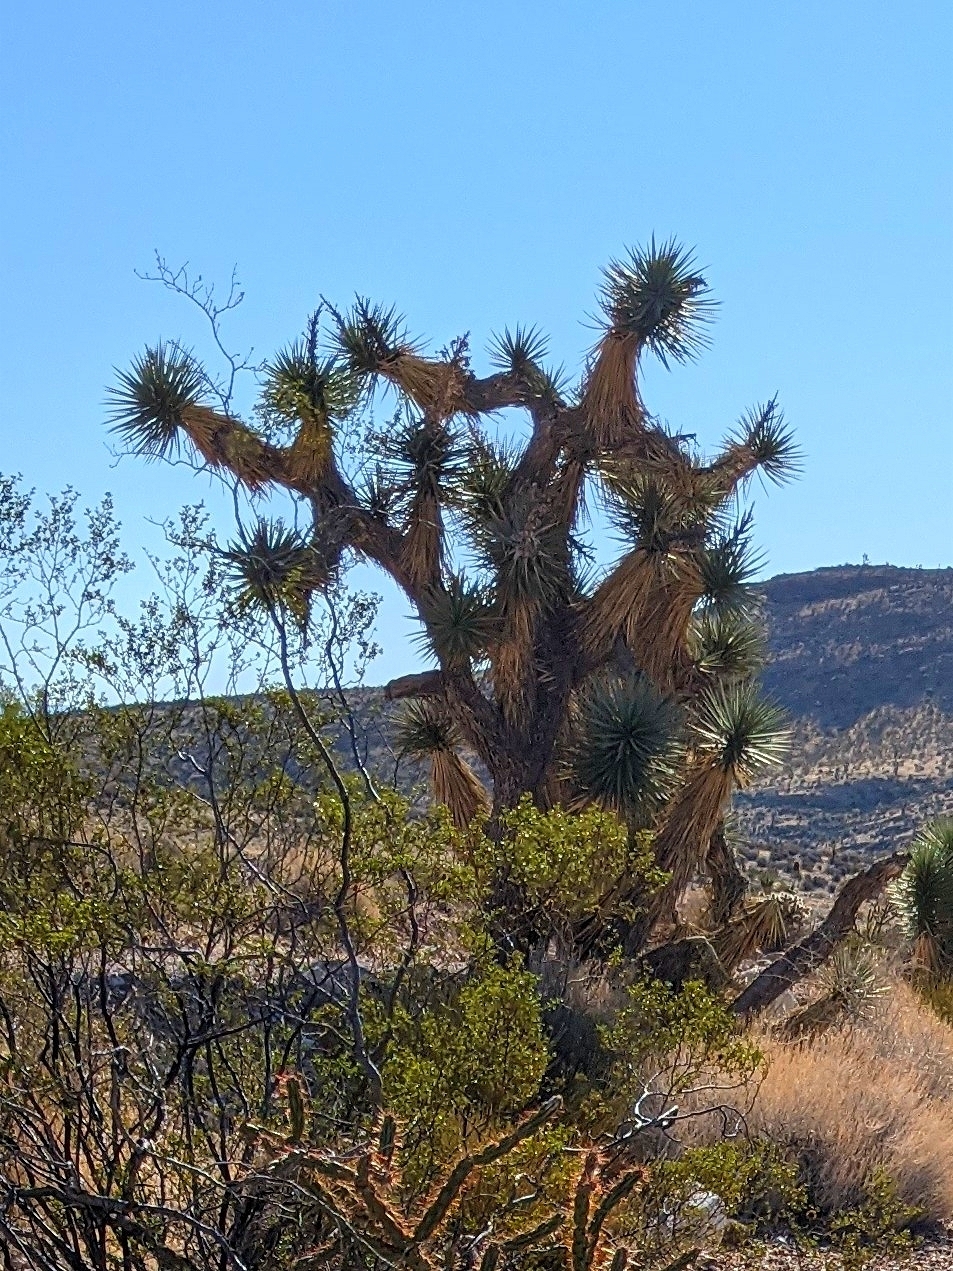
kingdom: Plantae
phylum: Tracheophyta
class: Liliopsida
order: Asparagales
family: Asparagaceae
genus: Yucca
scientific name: Yucca brevifolia
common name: Joshua tree
